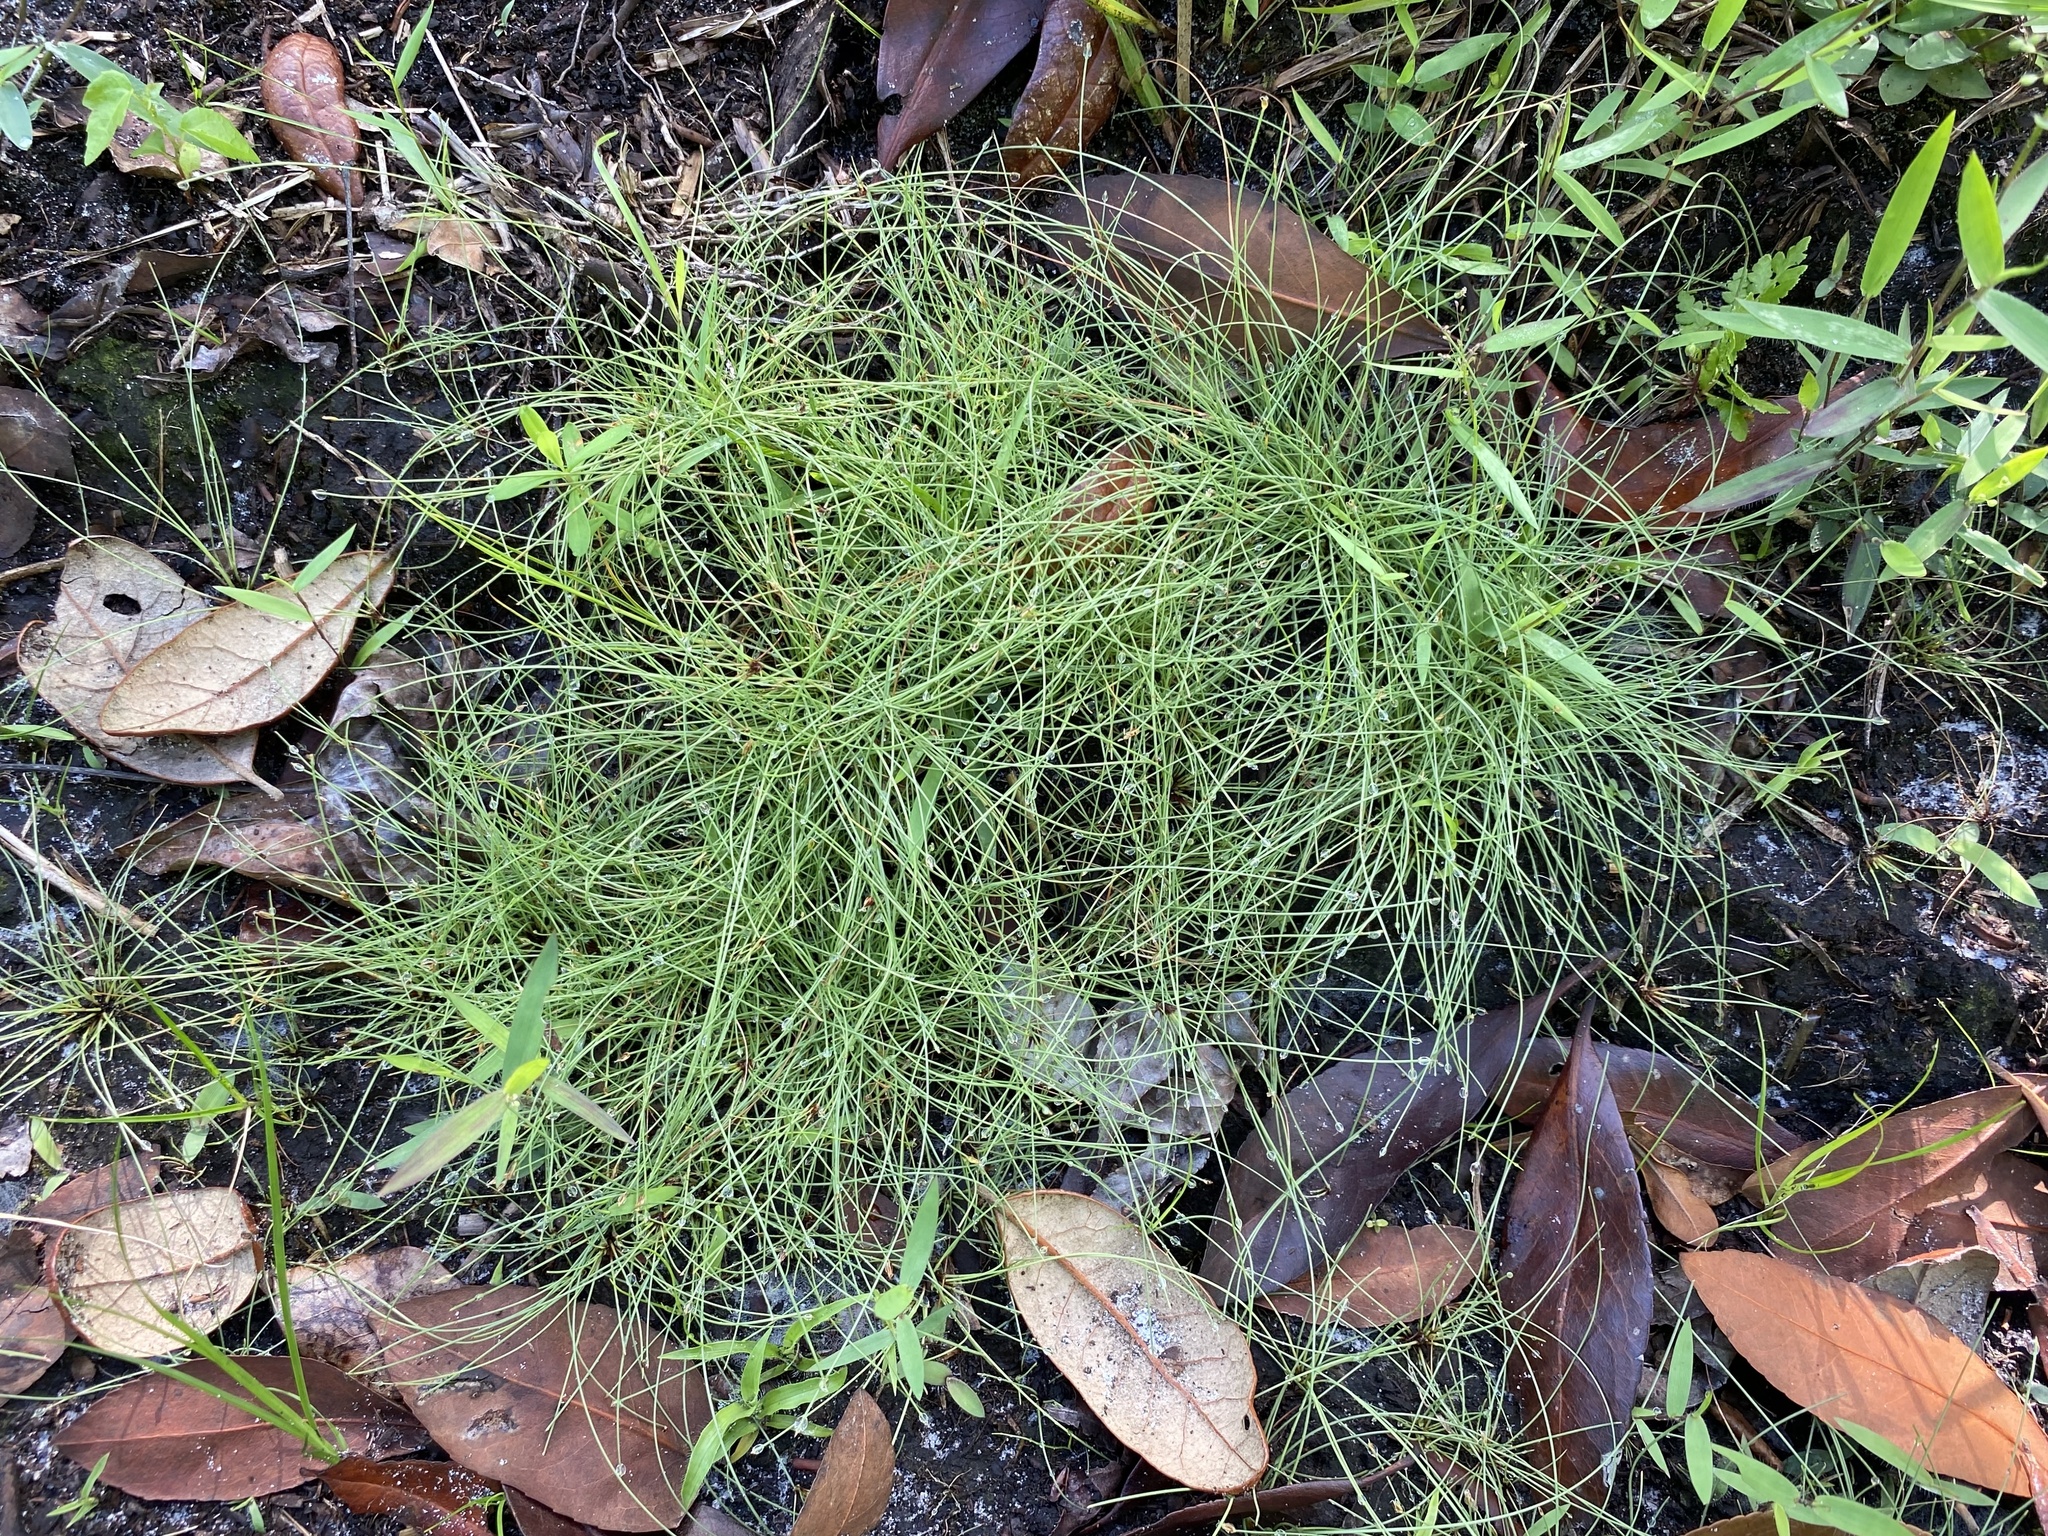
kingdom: Plantae
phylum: Tracheophyta
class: Liliopsida
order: Poales
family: Cyperaceae
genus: Eleocharis
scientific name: Eleocharis baldwinii
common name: Baldwin's spike-rush
